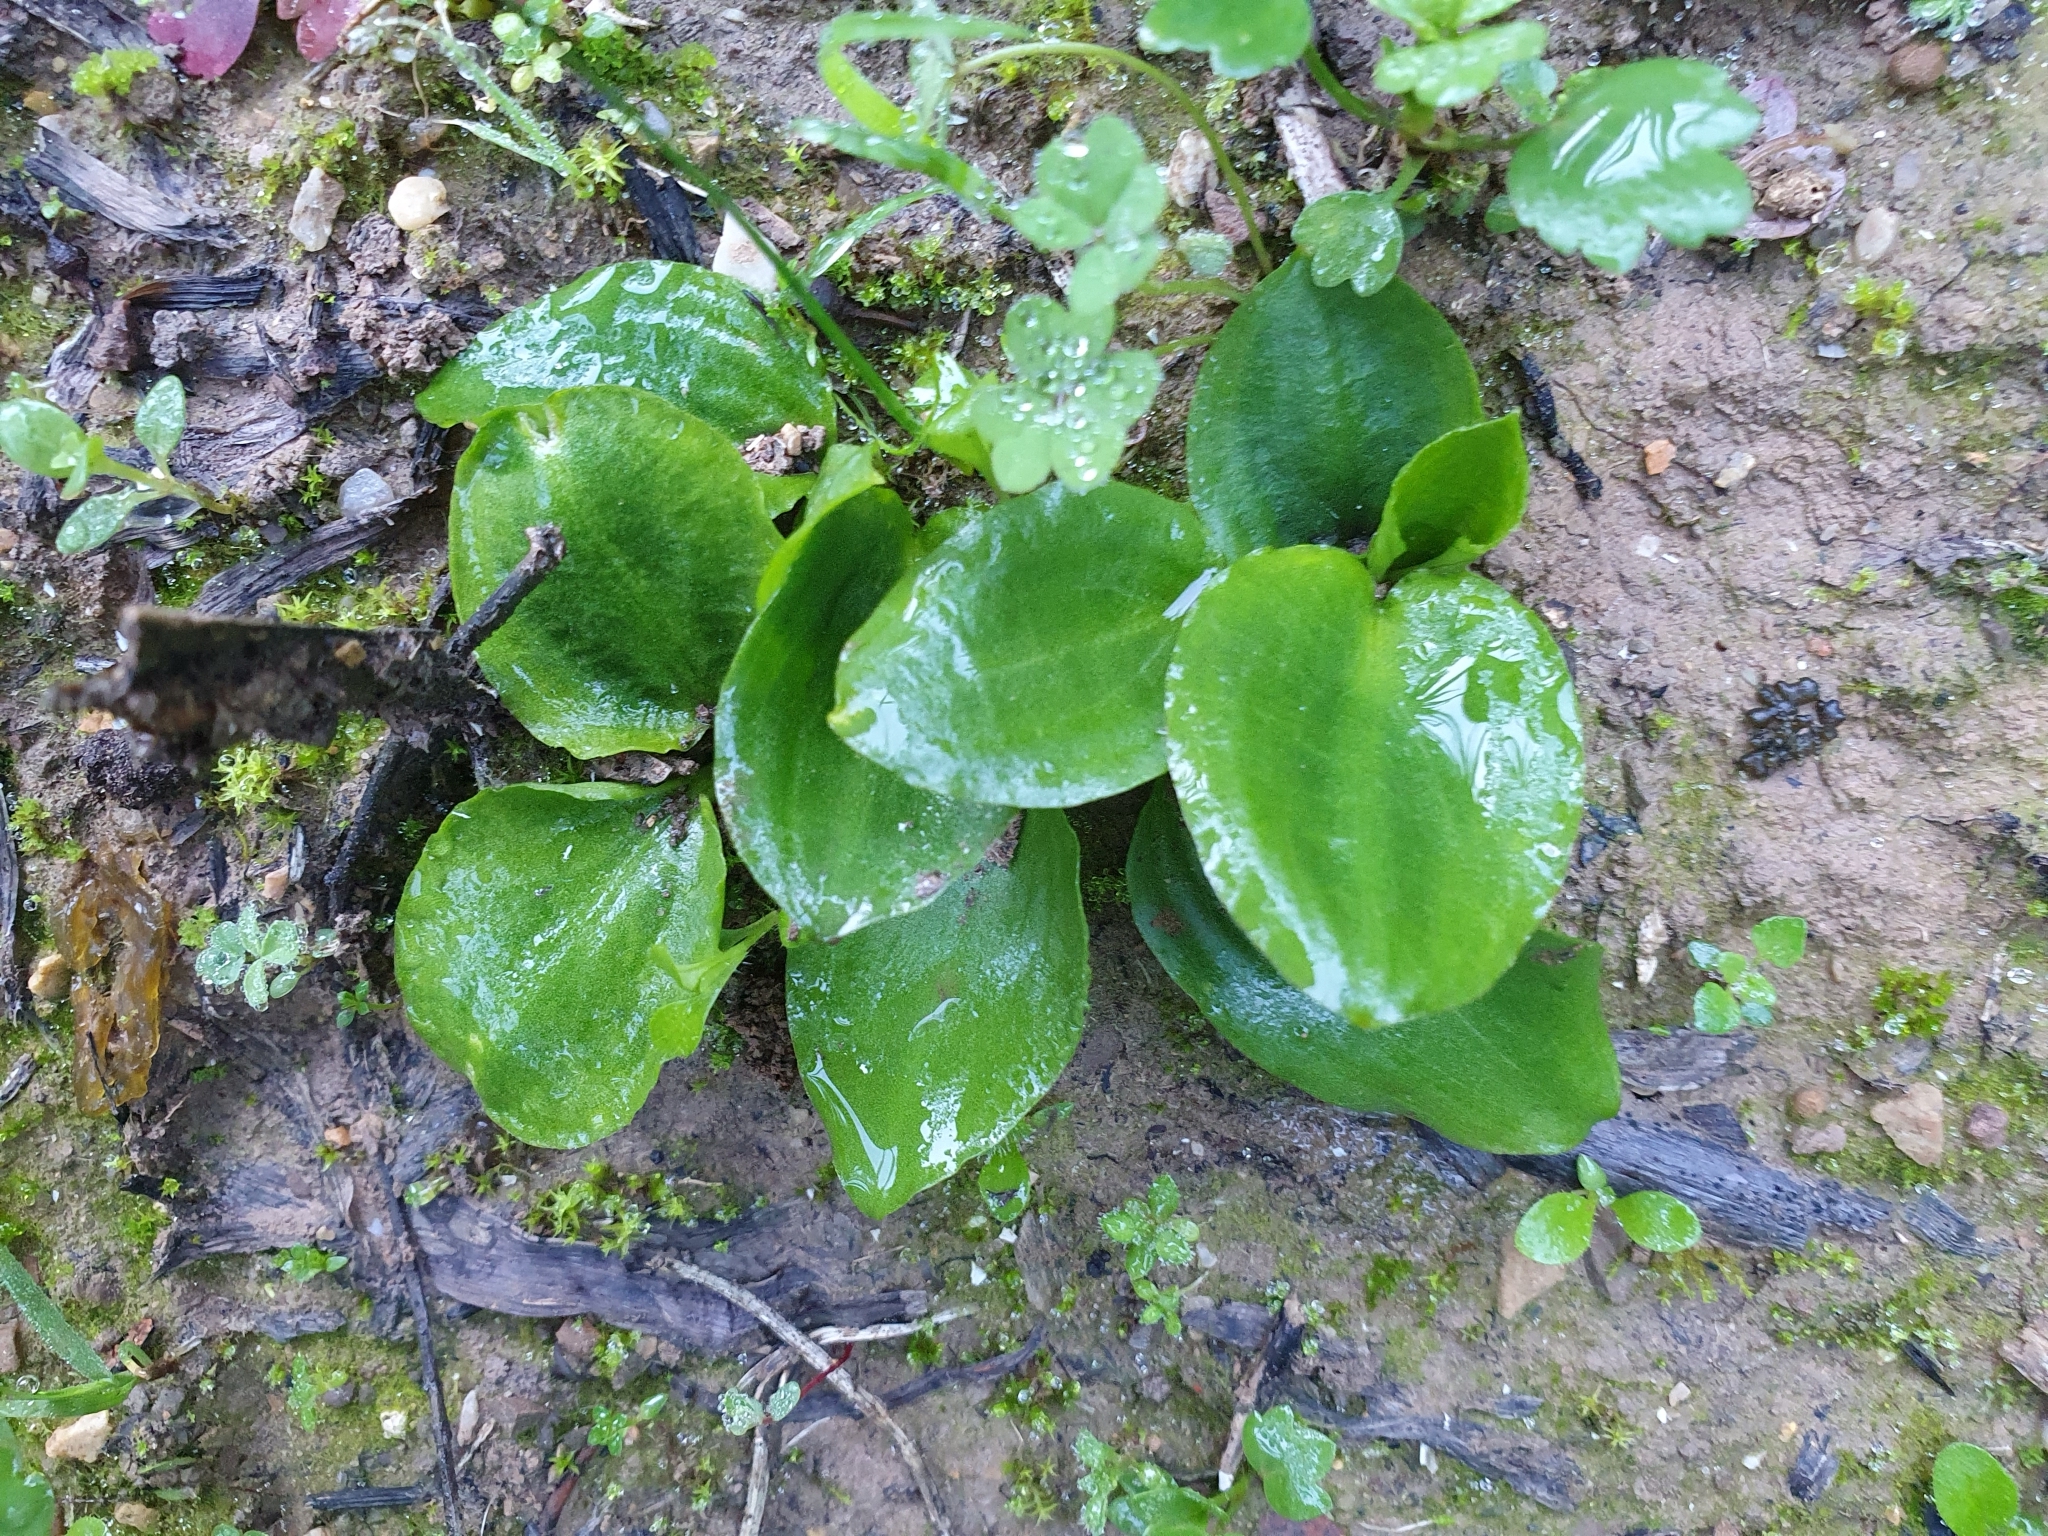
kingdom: Plantae
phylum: Tracheophyta
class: Liliopsida
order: Alismatales
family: Araceae
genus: Ambrosina
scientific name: Ambrosina bassii
